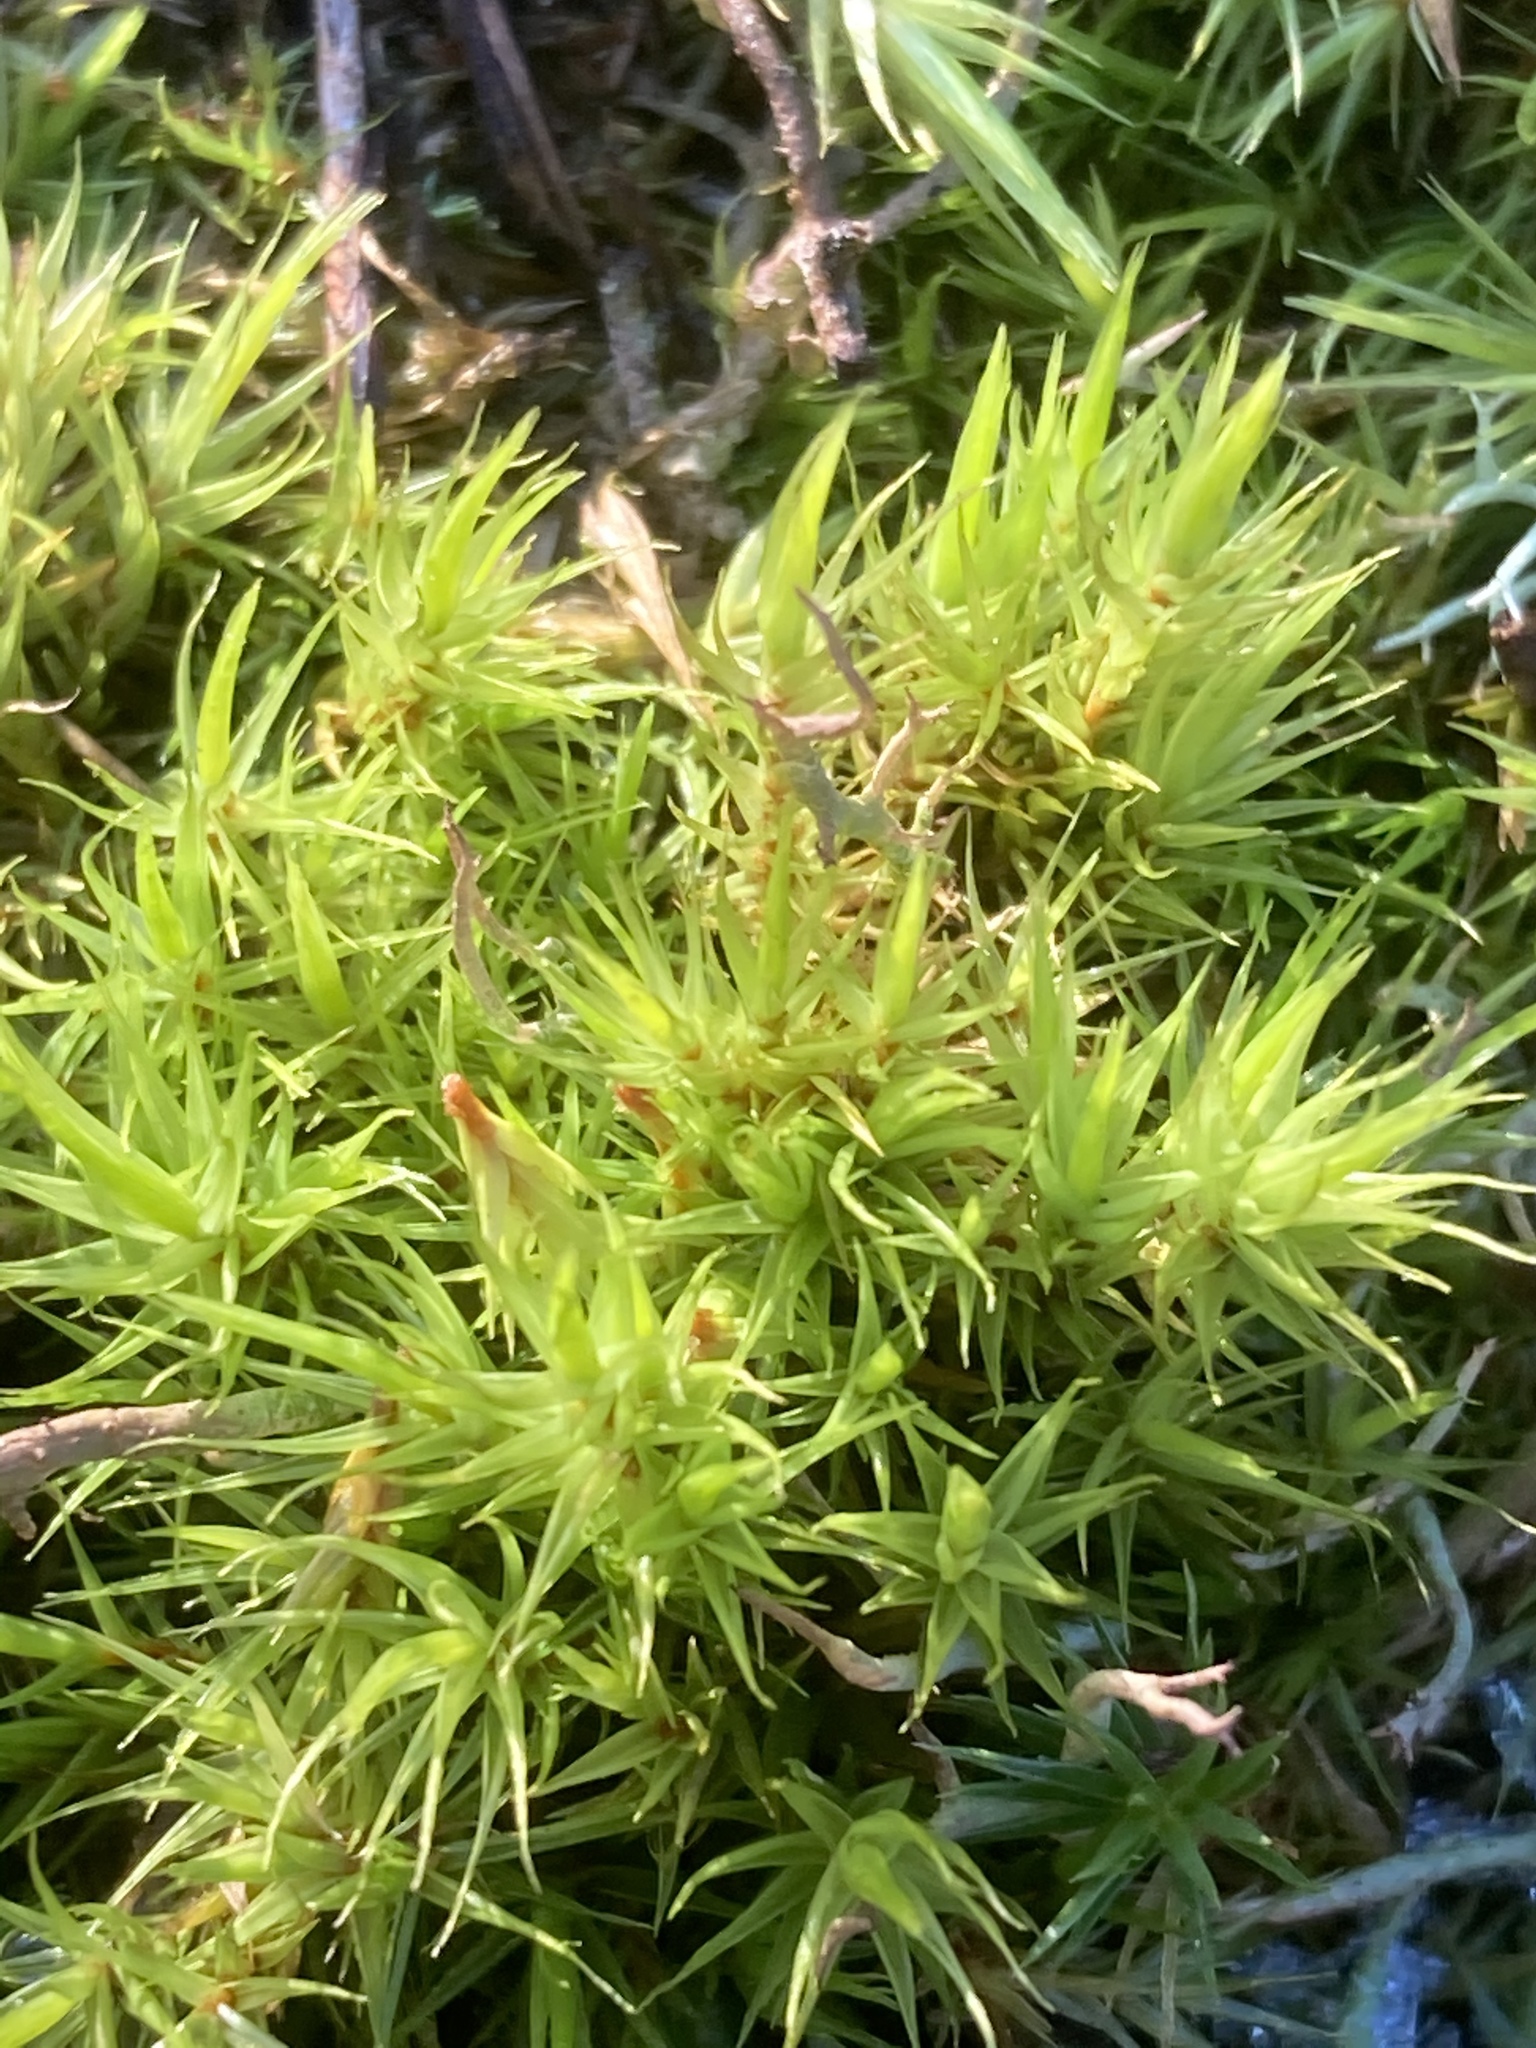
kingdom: Plantae
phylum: Bryophyta
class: Bryopsida
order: Dicranales
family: Dicranaceae
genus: Dicranum
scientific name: Dicranum scoparium
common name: Broom fork-moss
